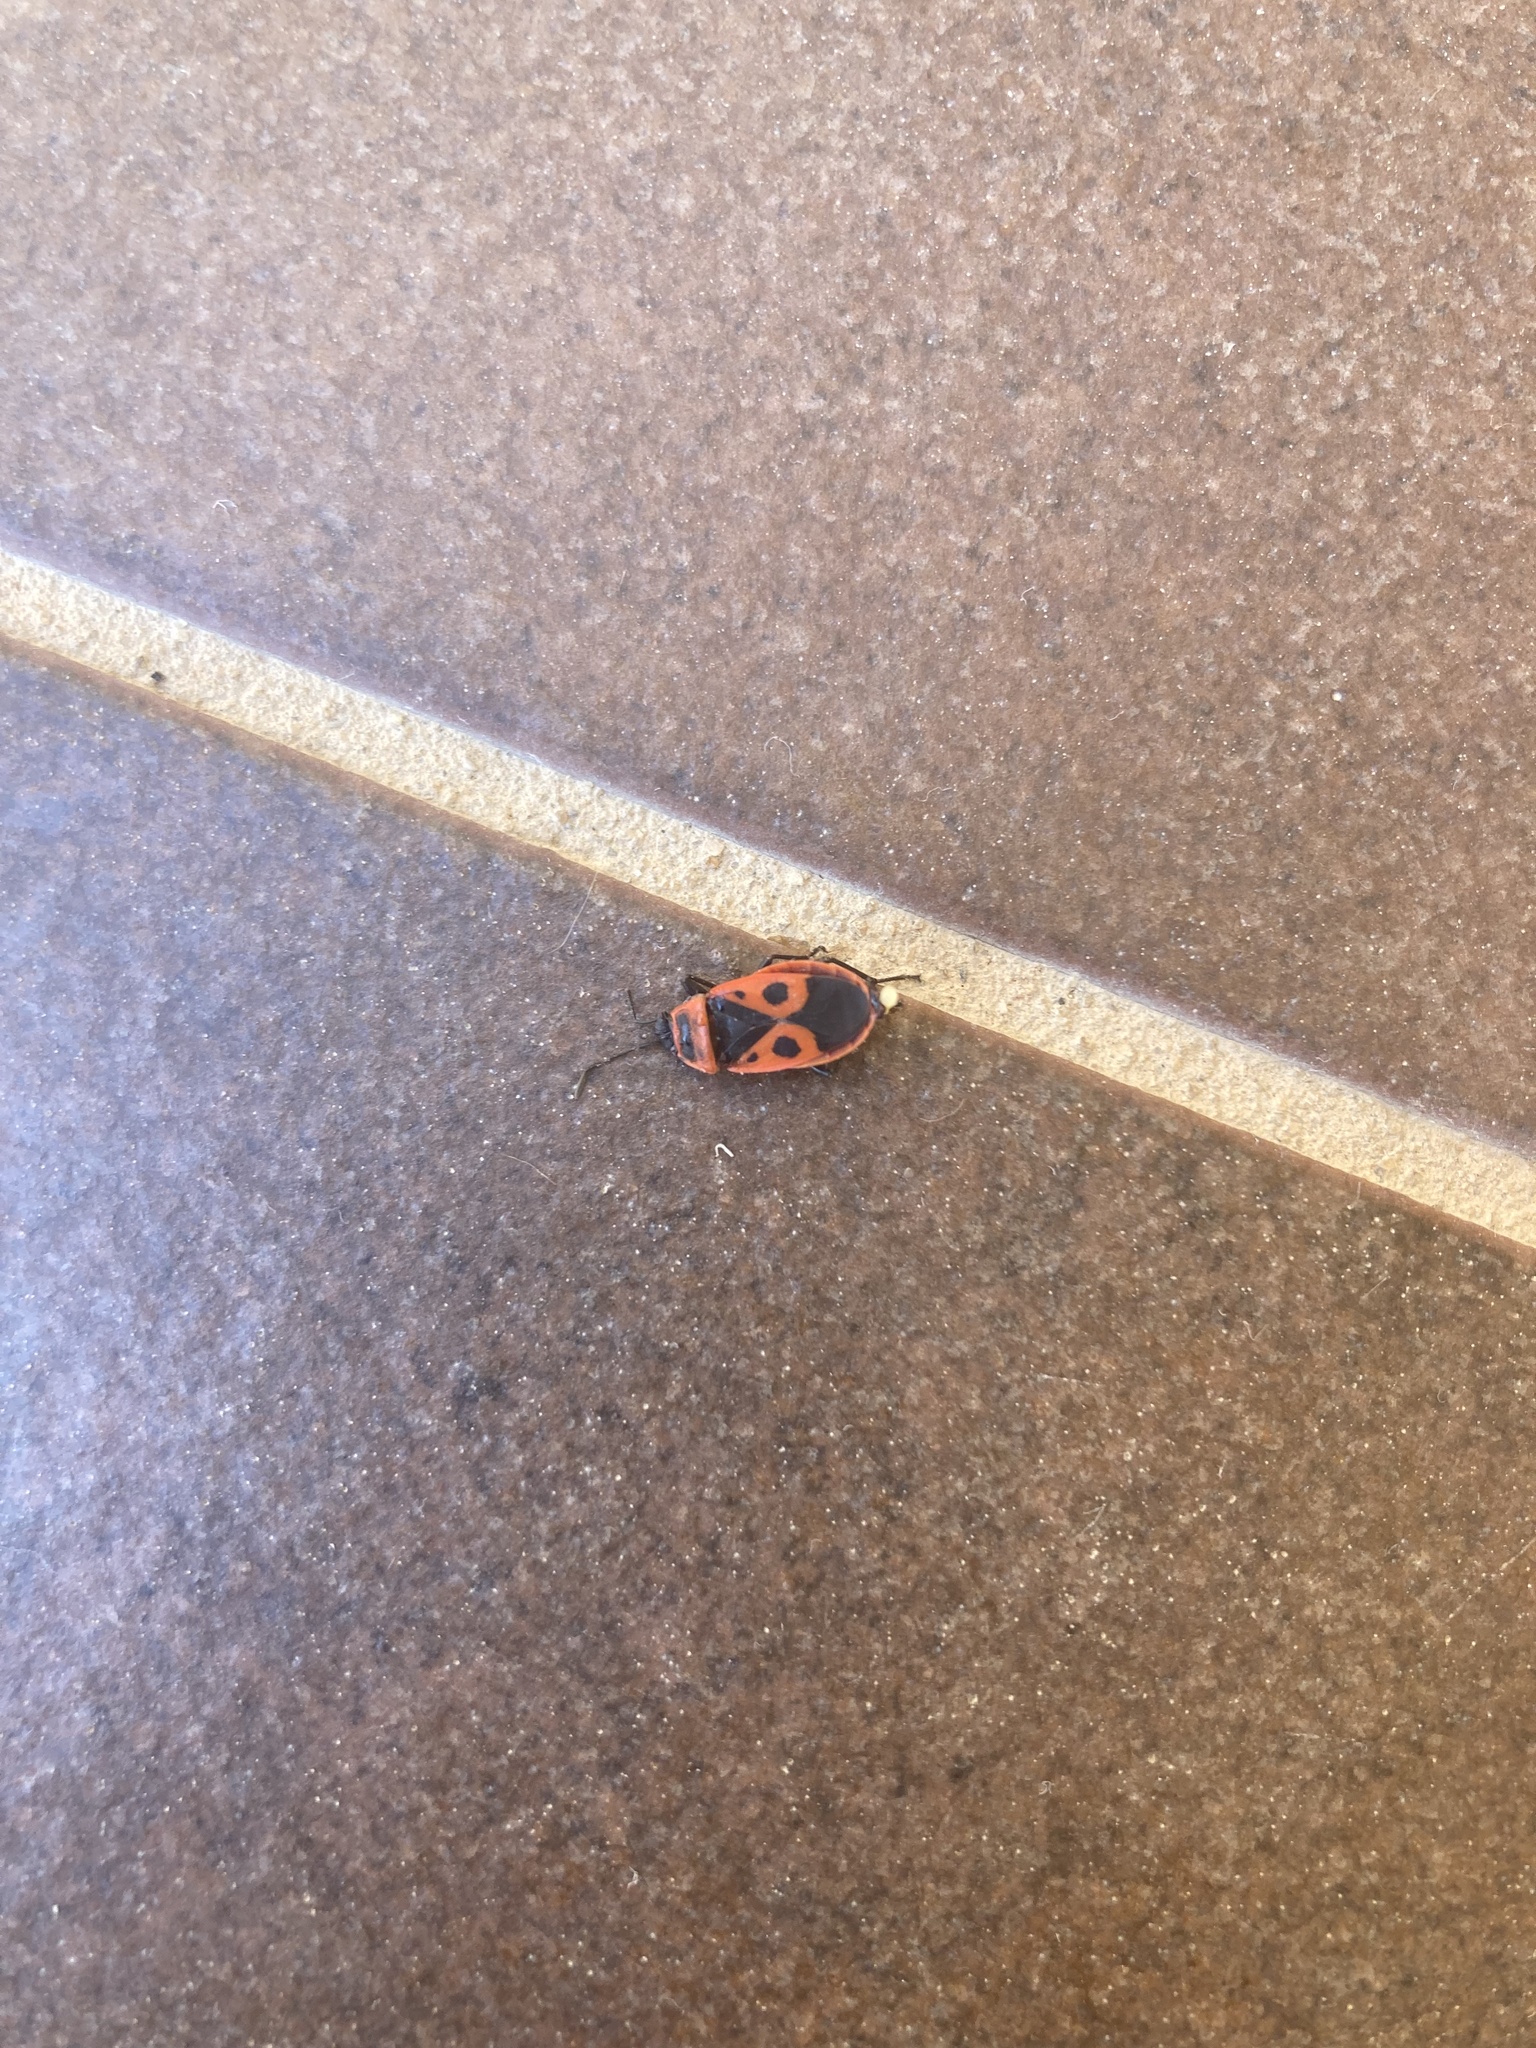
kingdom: Animalia
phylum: Arthropoda
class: Insecta
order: Hemiptera
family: Pyrrhocoridae
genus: Pyrrhocoris
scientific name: Pyrrhocoris apterus
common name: Firebug
